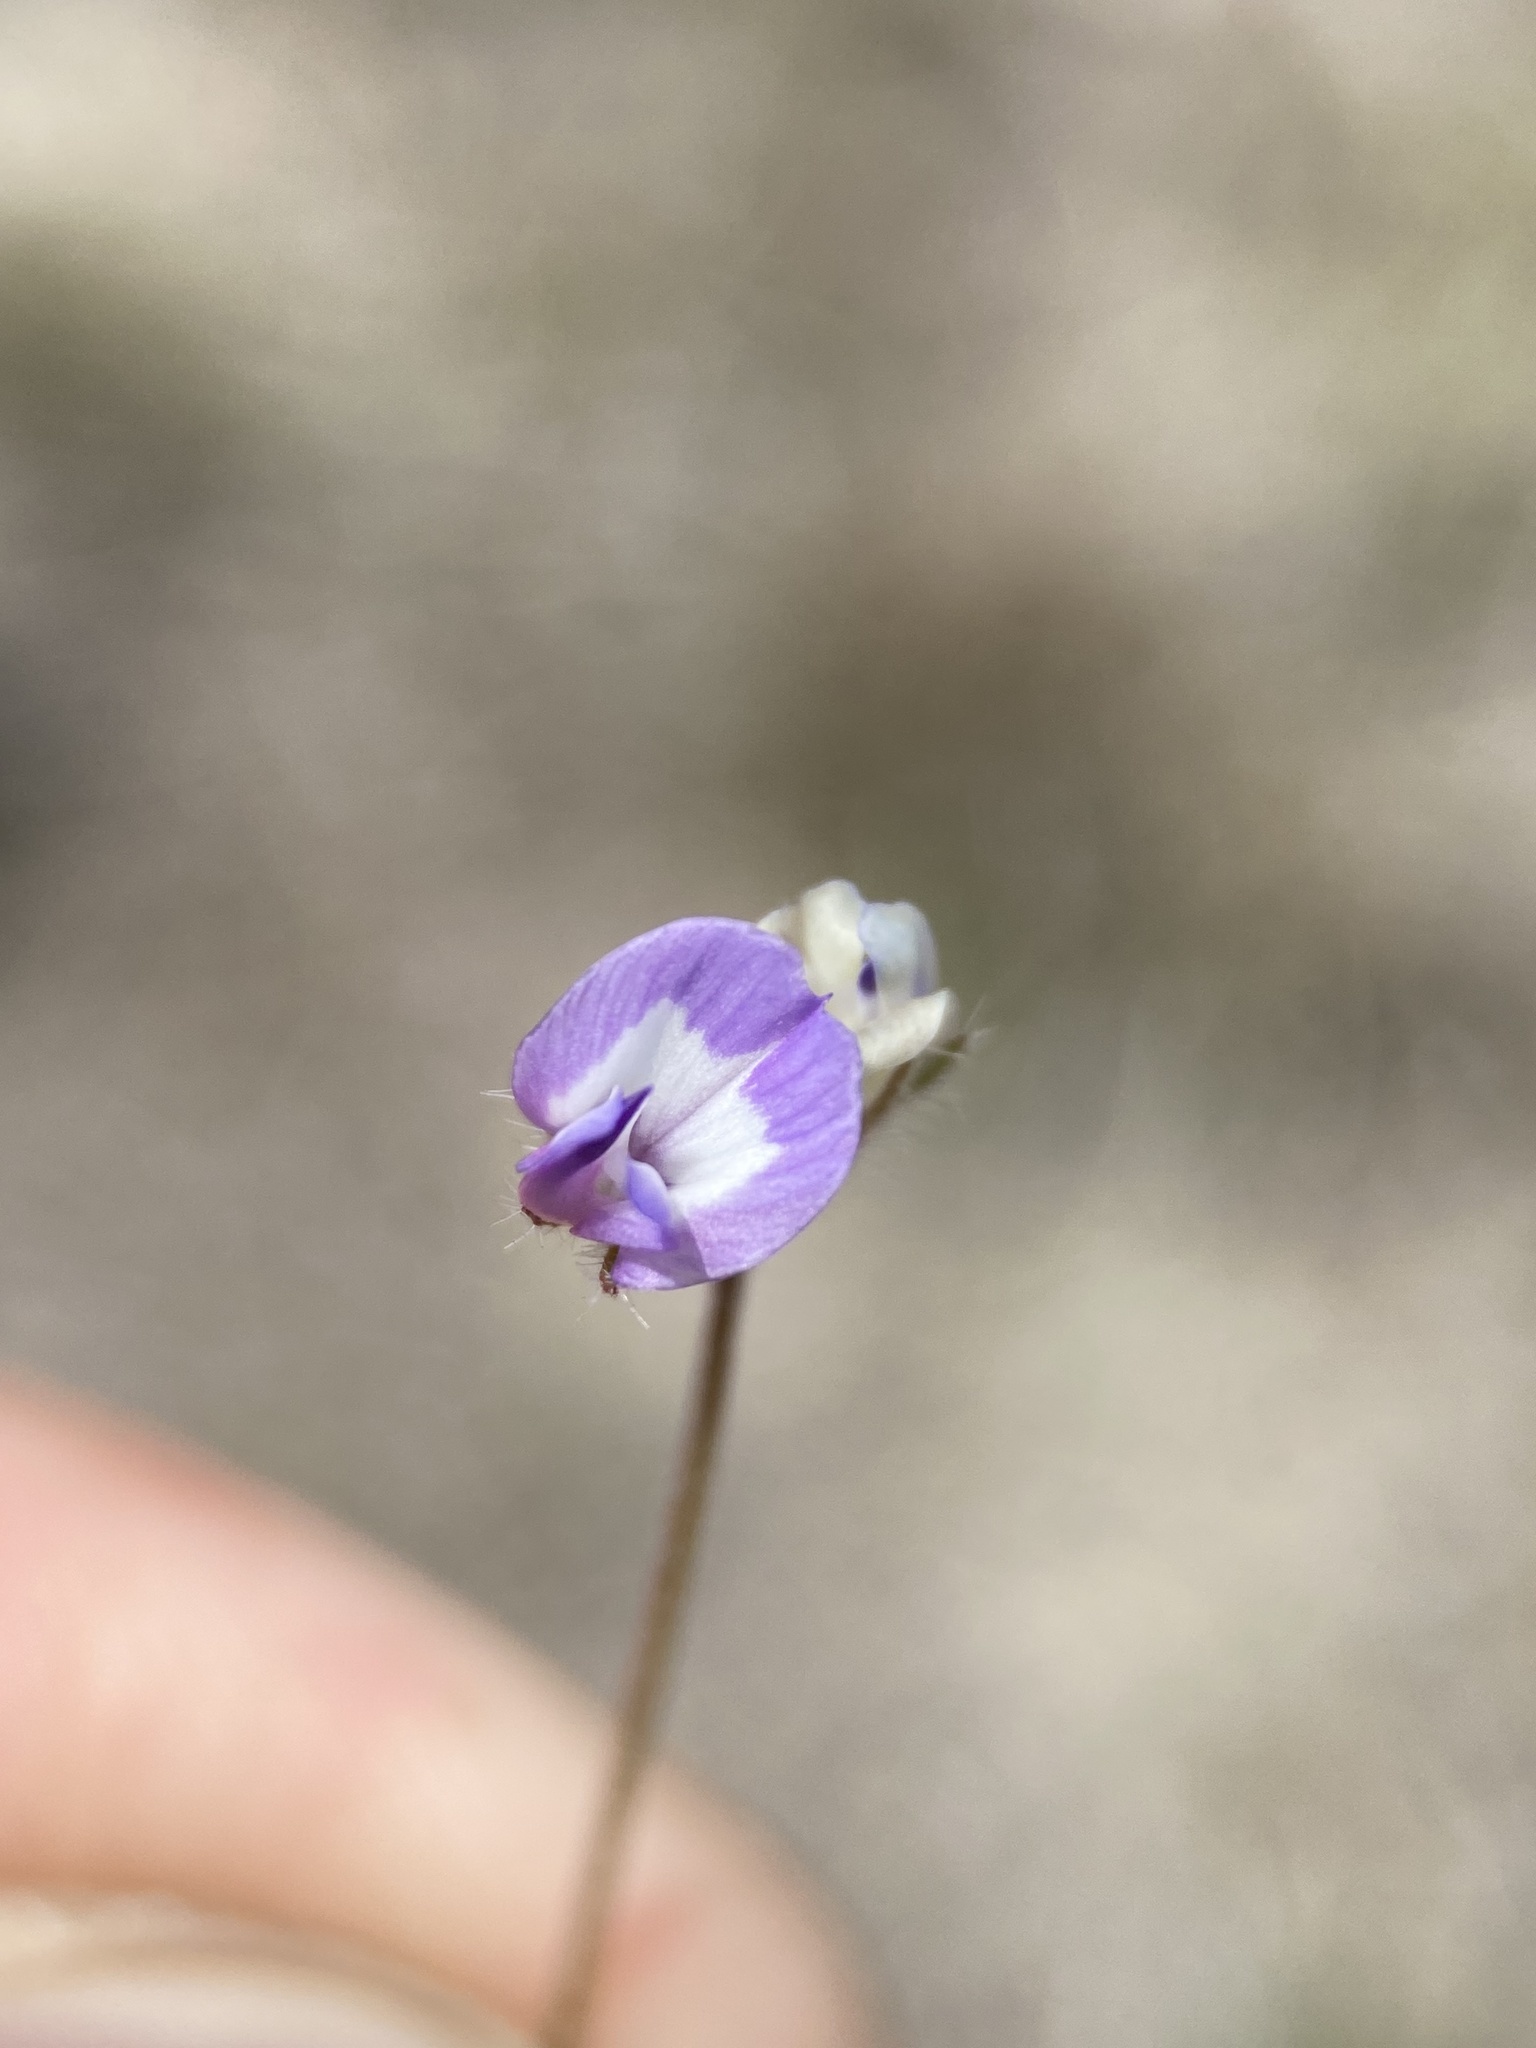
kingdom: Plantae
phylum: Tracheophyta
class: Magnoliopsida
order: Fabales
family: Fabaceae
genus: Astragalus
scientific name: Astragalus nuttallianus
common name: Smallflowered milkvetch
